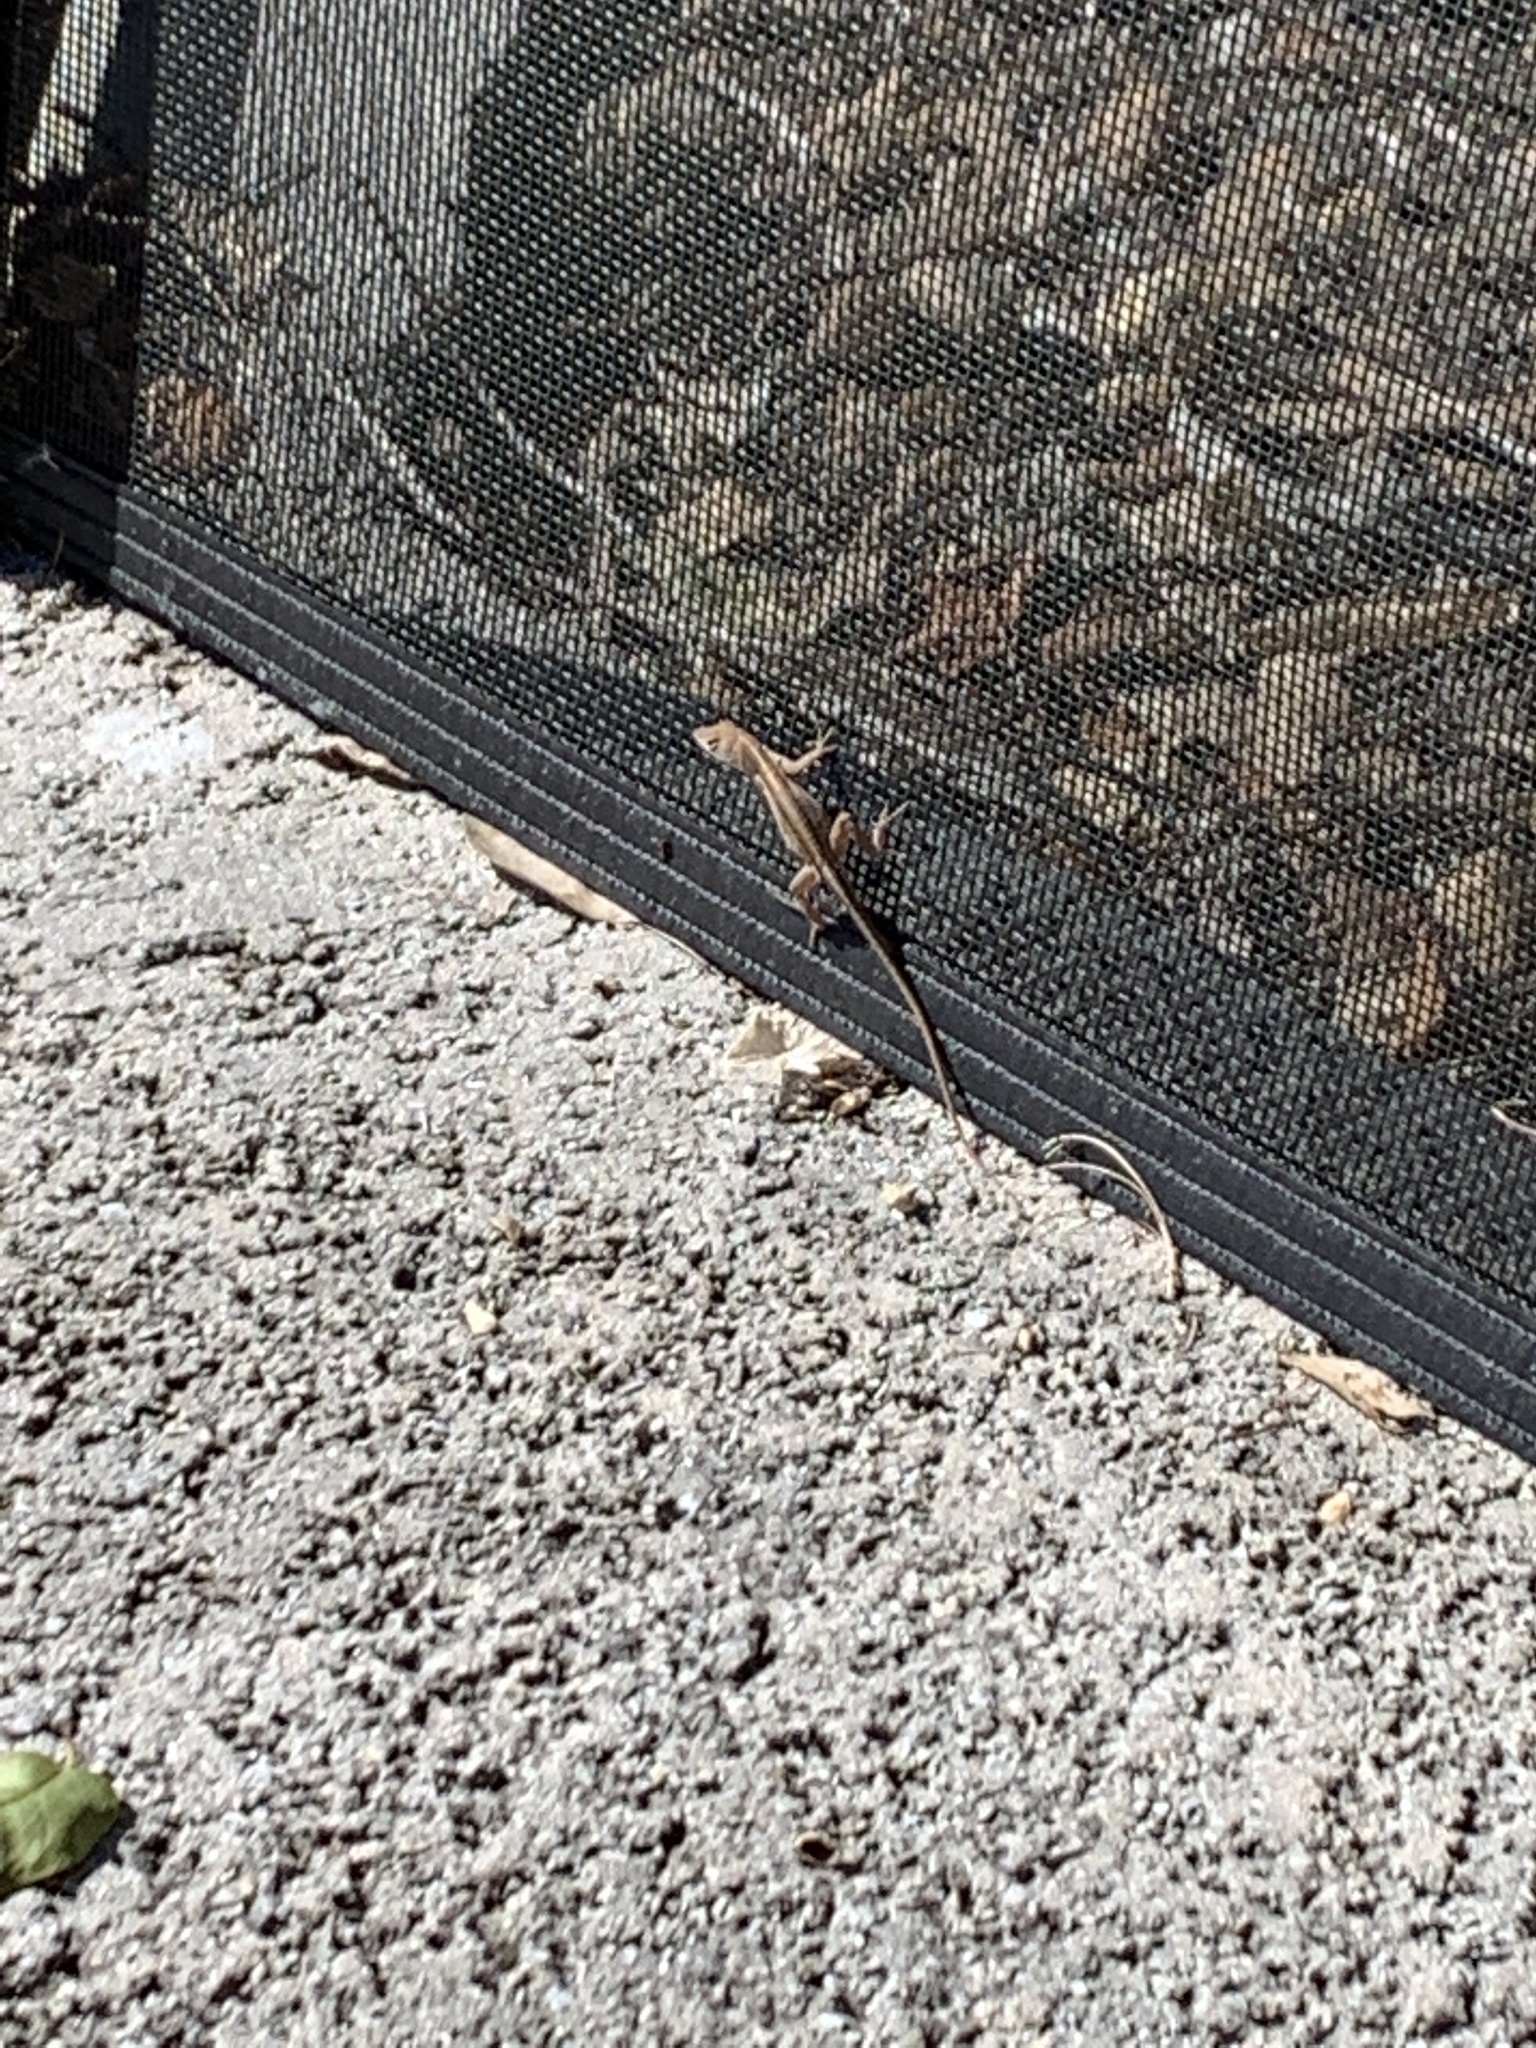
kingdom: Animalia
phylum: Chordata
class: Squamata
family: Dactyloidae
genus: Anolis
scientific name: Anolis sagrei
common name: Brown anole
